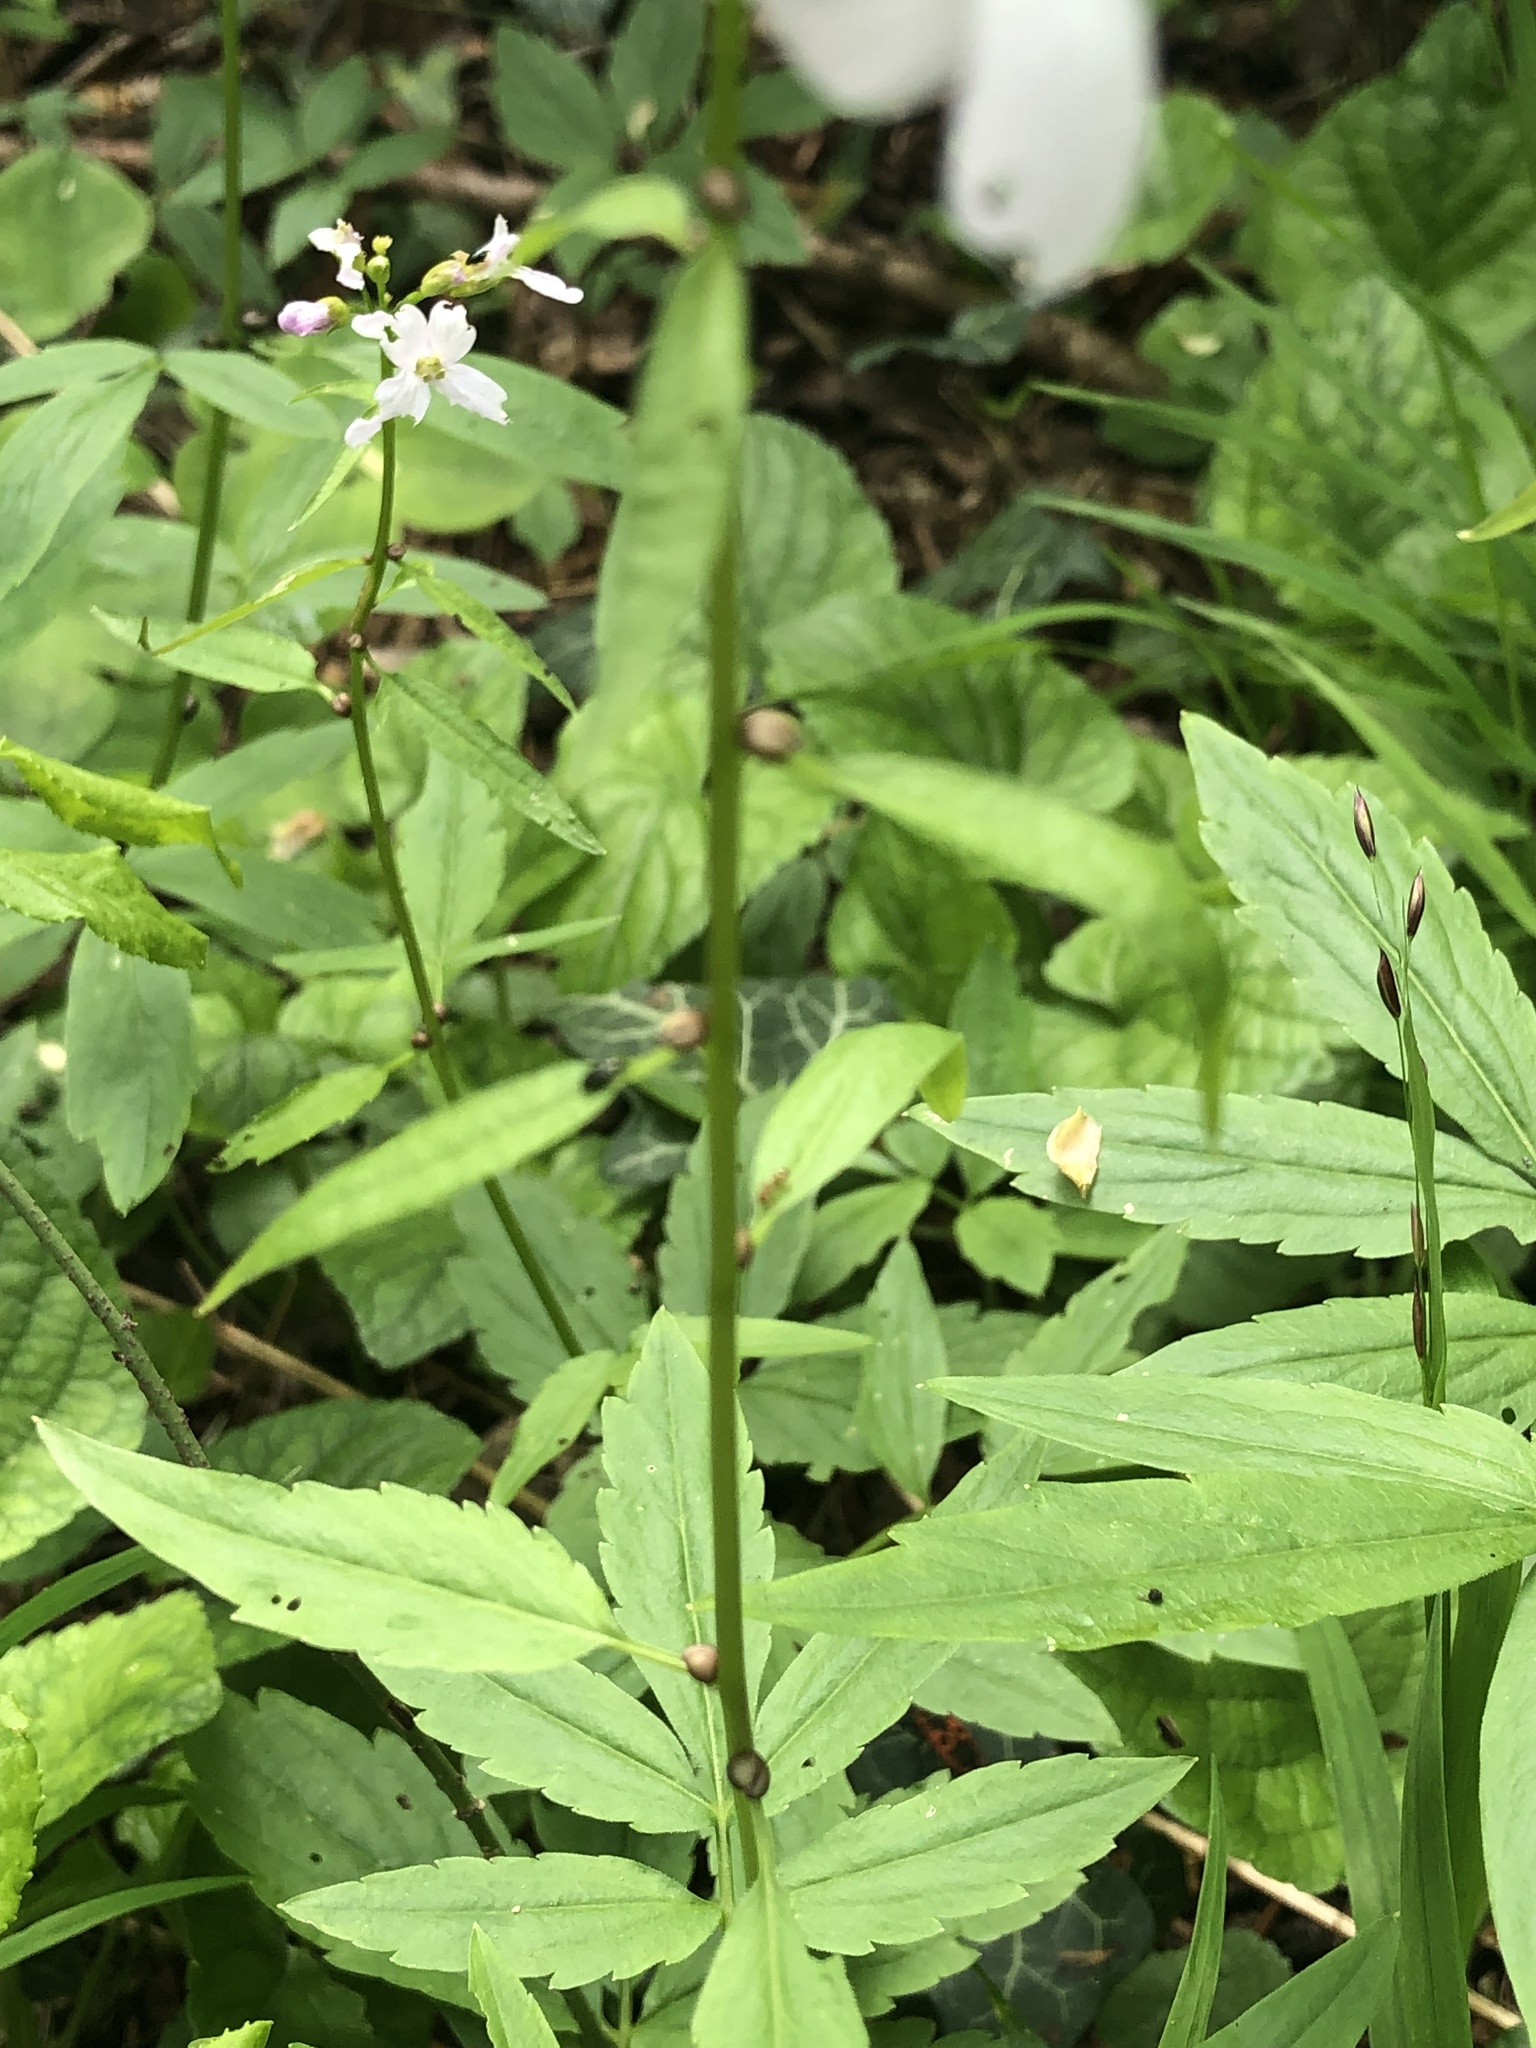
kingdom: Plantae
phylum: Tracheophyta
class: Magnoliopsida
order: Brassicales
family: Brassicaceae
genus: Cardamine
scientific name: Cardamine bulbifera
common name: Coralroot bittercress
